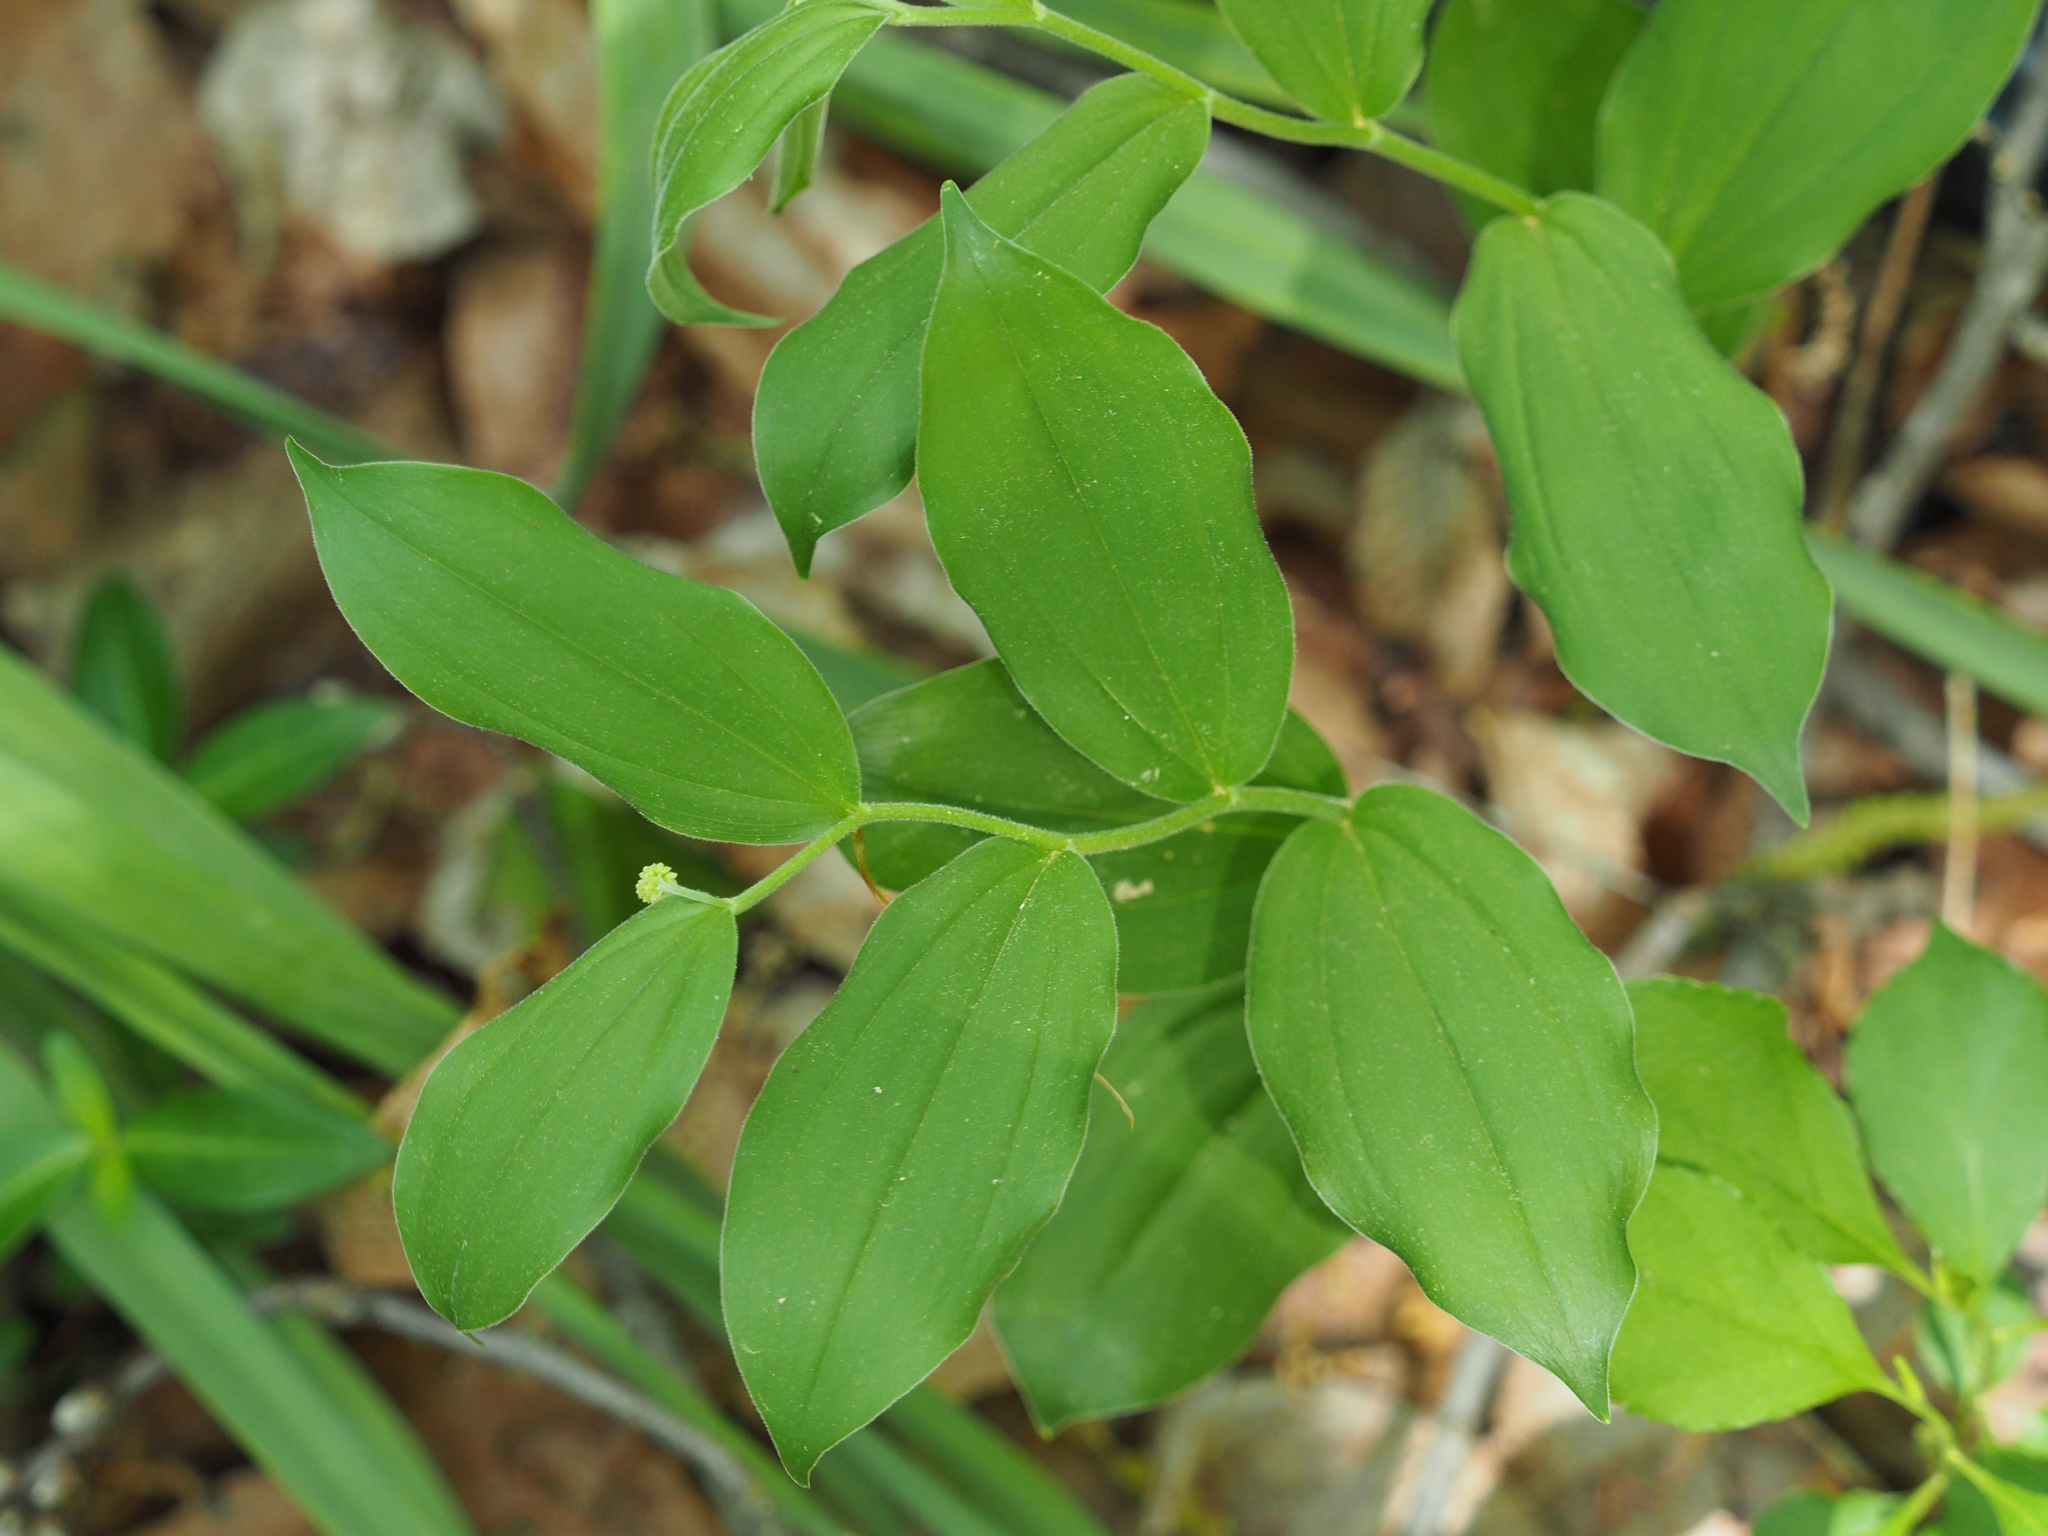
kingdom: Plantae
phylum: Tracheophyta
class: Liliopsida
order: Asparagales
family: Asparagaceae
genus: Maianthemum
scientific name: Maianthemum racemosum
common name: False spikenard
